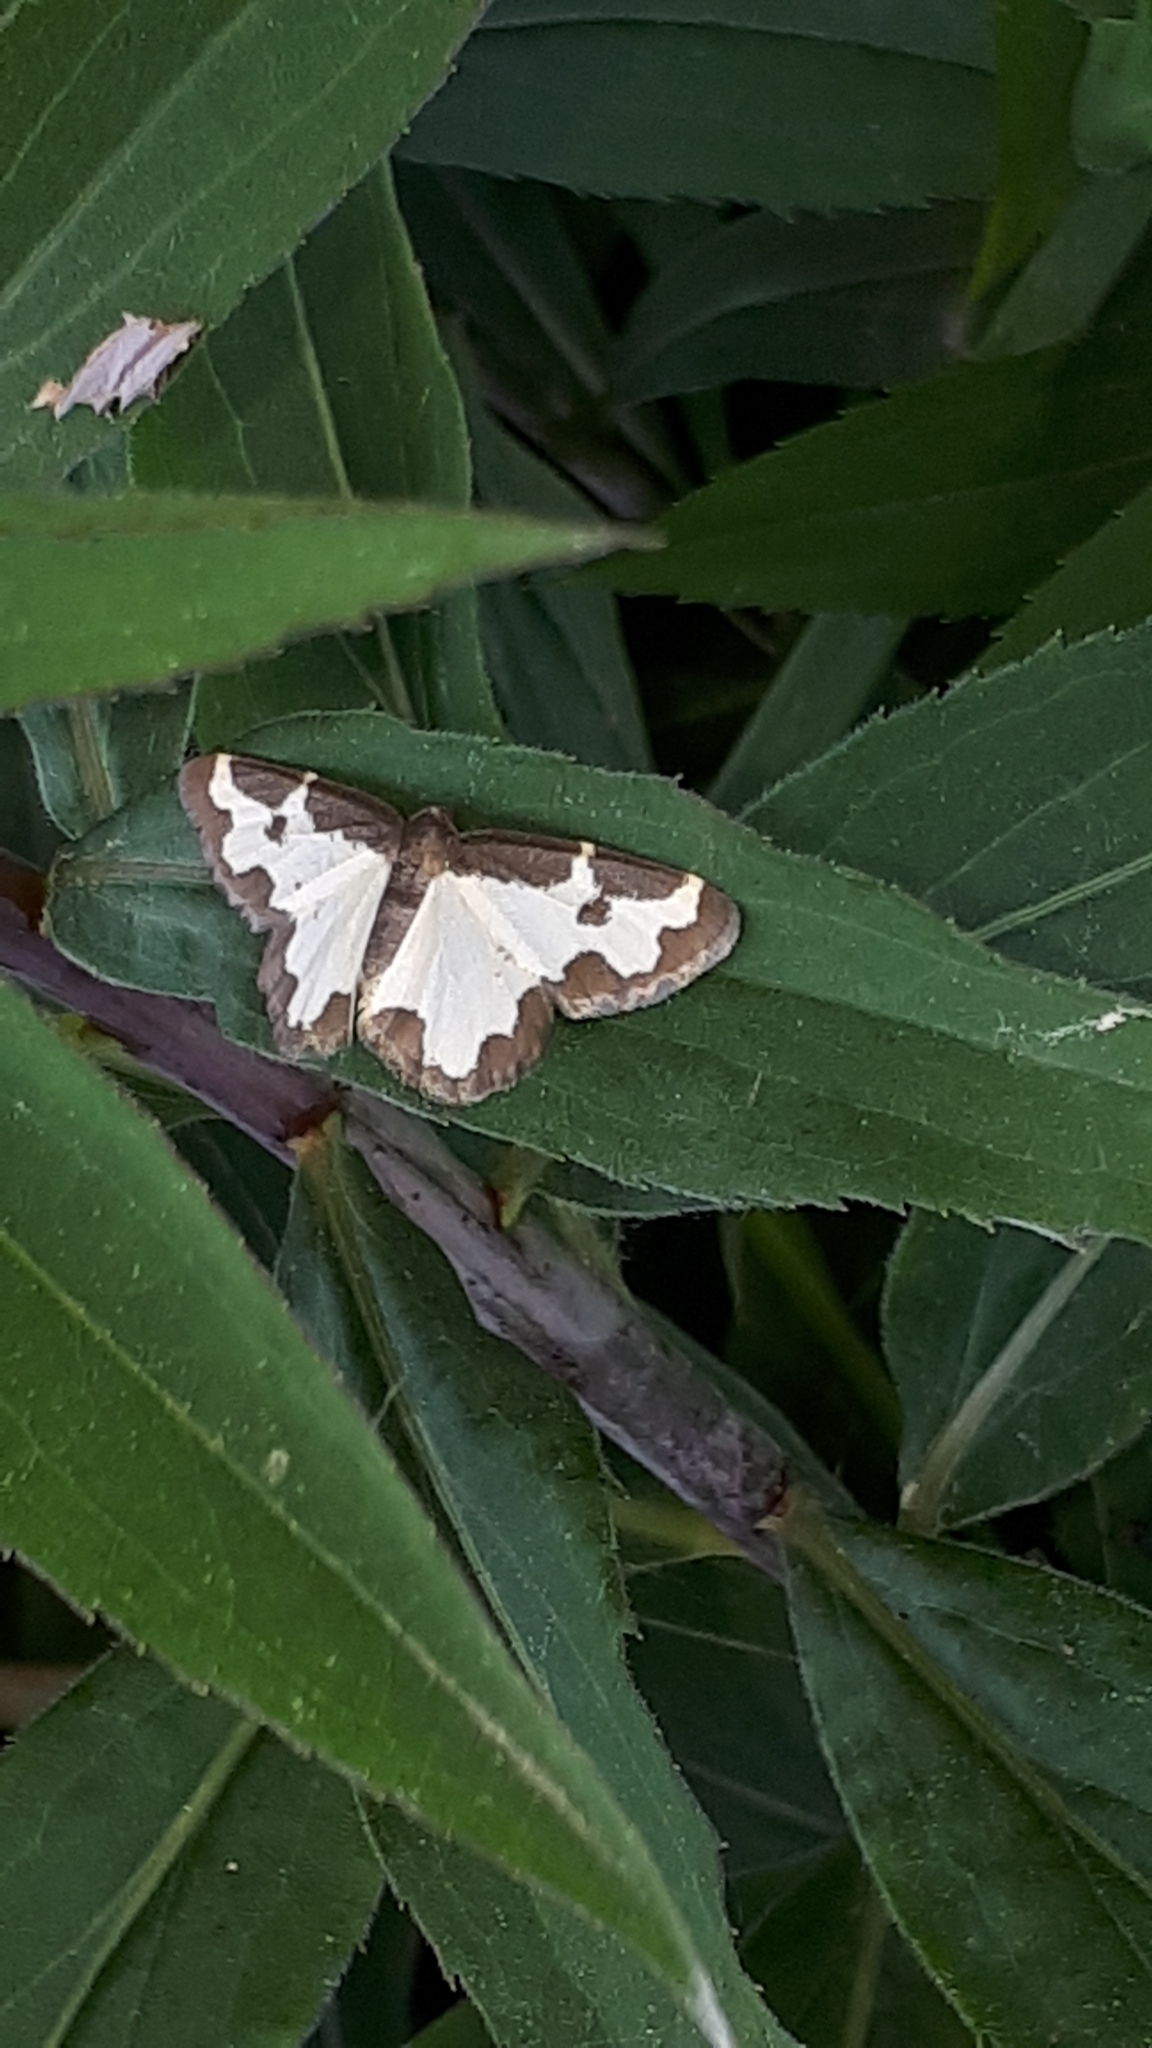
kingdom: Animalia
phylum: Arthropoda
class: Insecta
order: Lepidoptera
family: Geometridae
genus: Lomaspilis
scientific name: Lomaspilis marginata
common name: Clouded border
